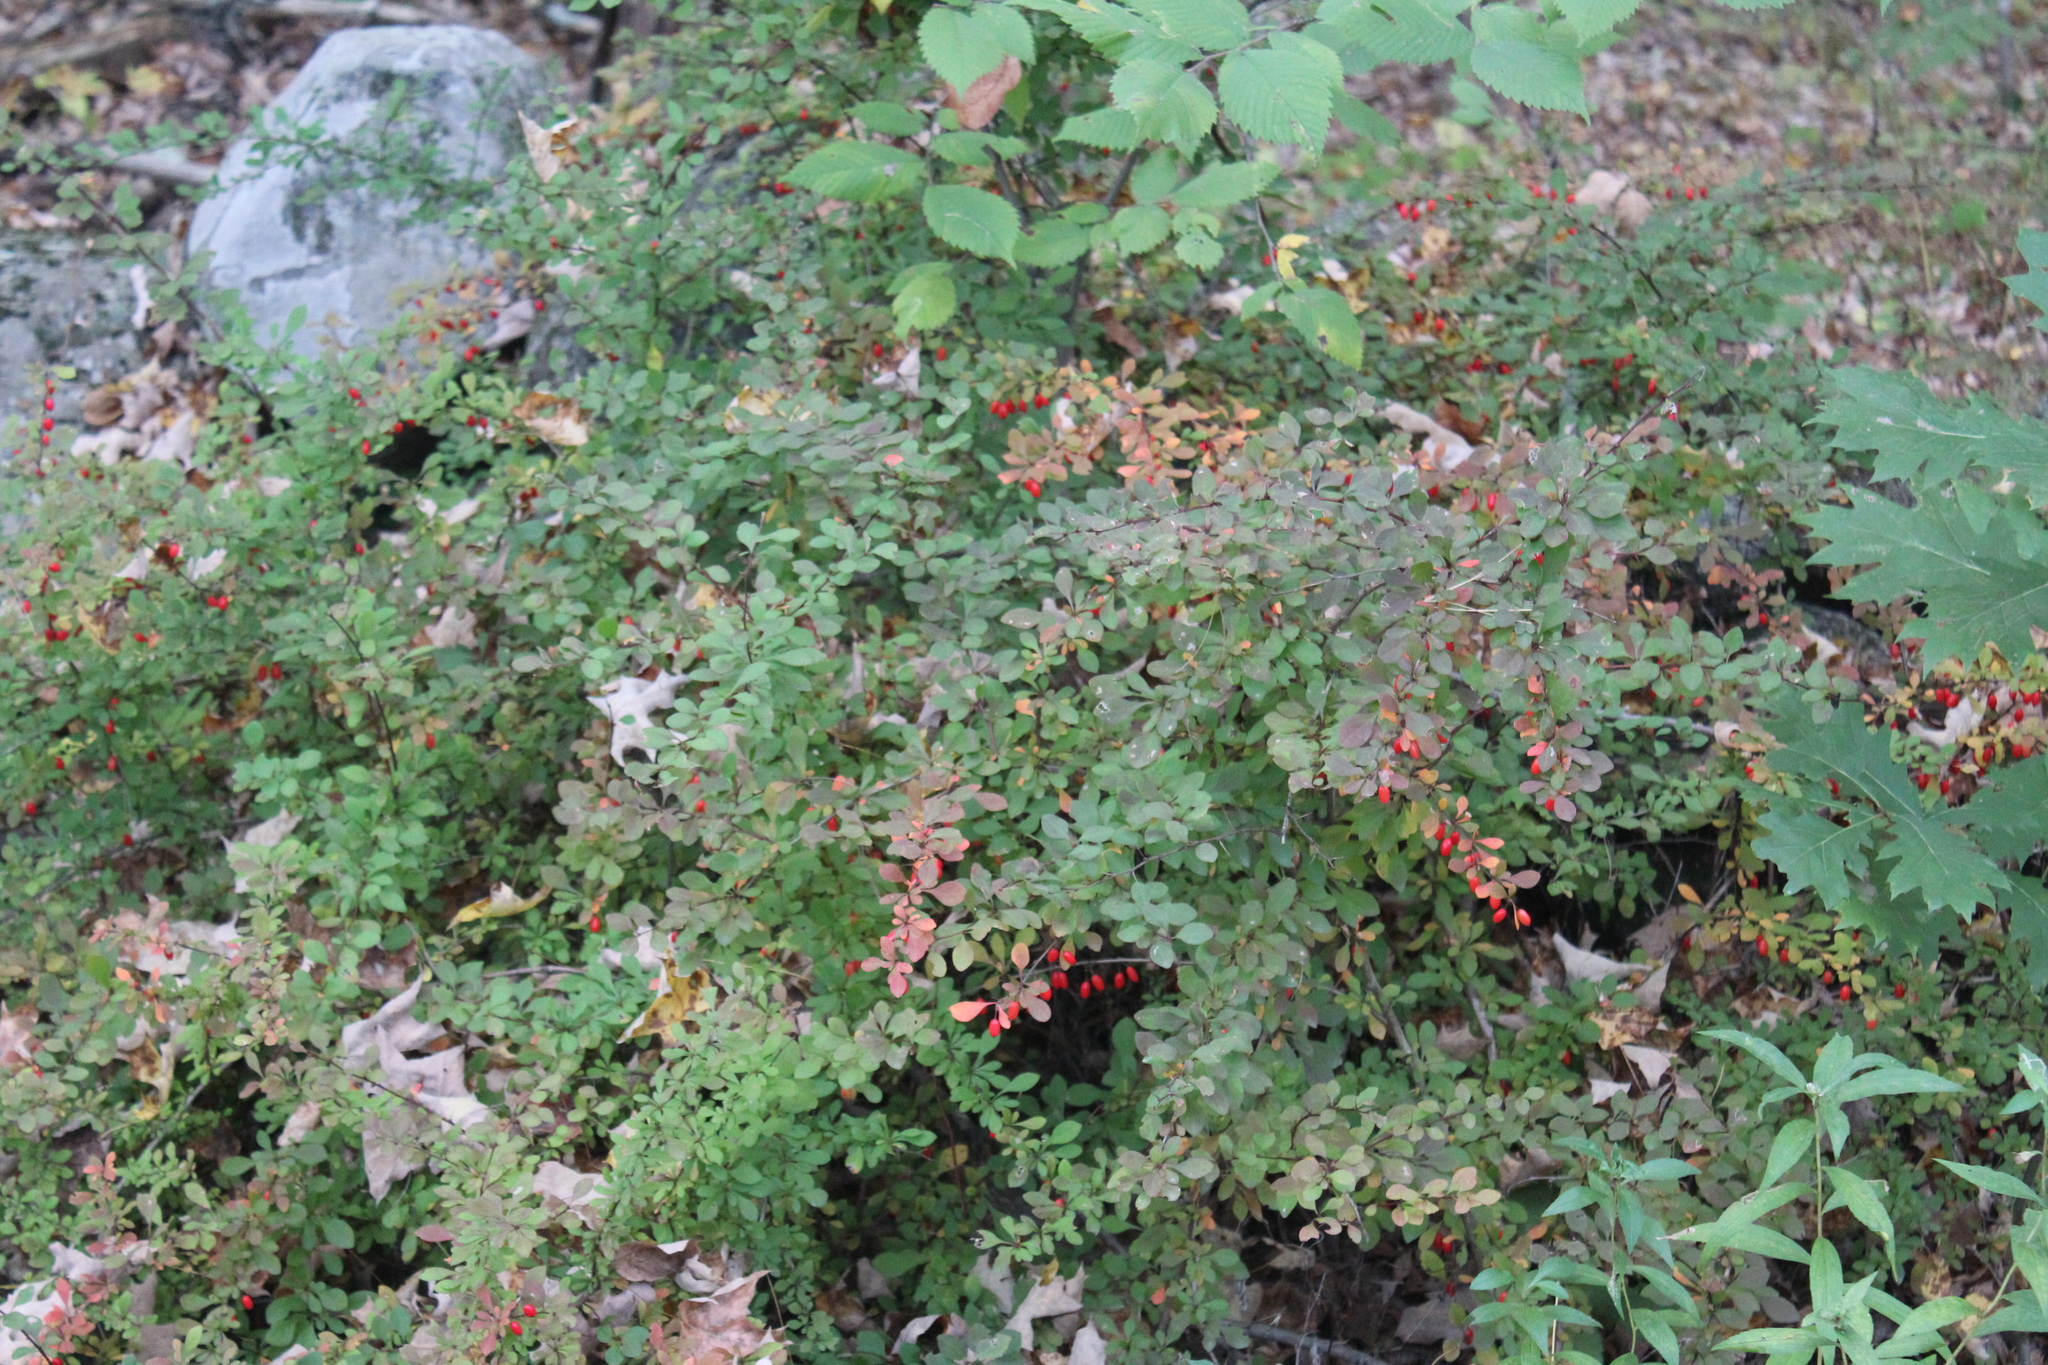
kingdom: Plantae
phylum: Tracheophyta
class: Magnoliopsida
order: Ranunculales
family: Berberidaceae
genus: Berberis
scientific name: Berberis thunbergii
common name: Japanese barberry
